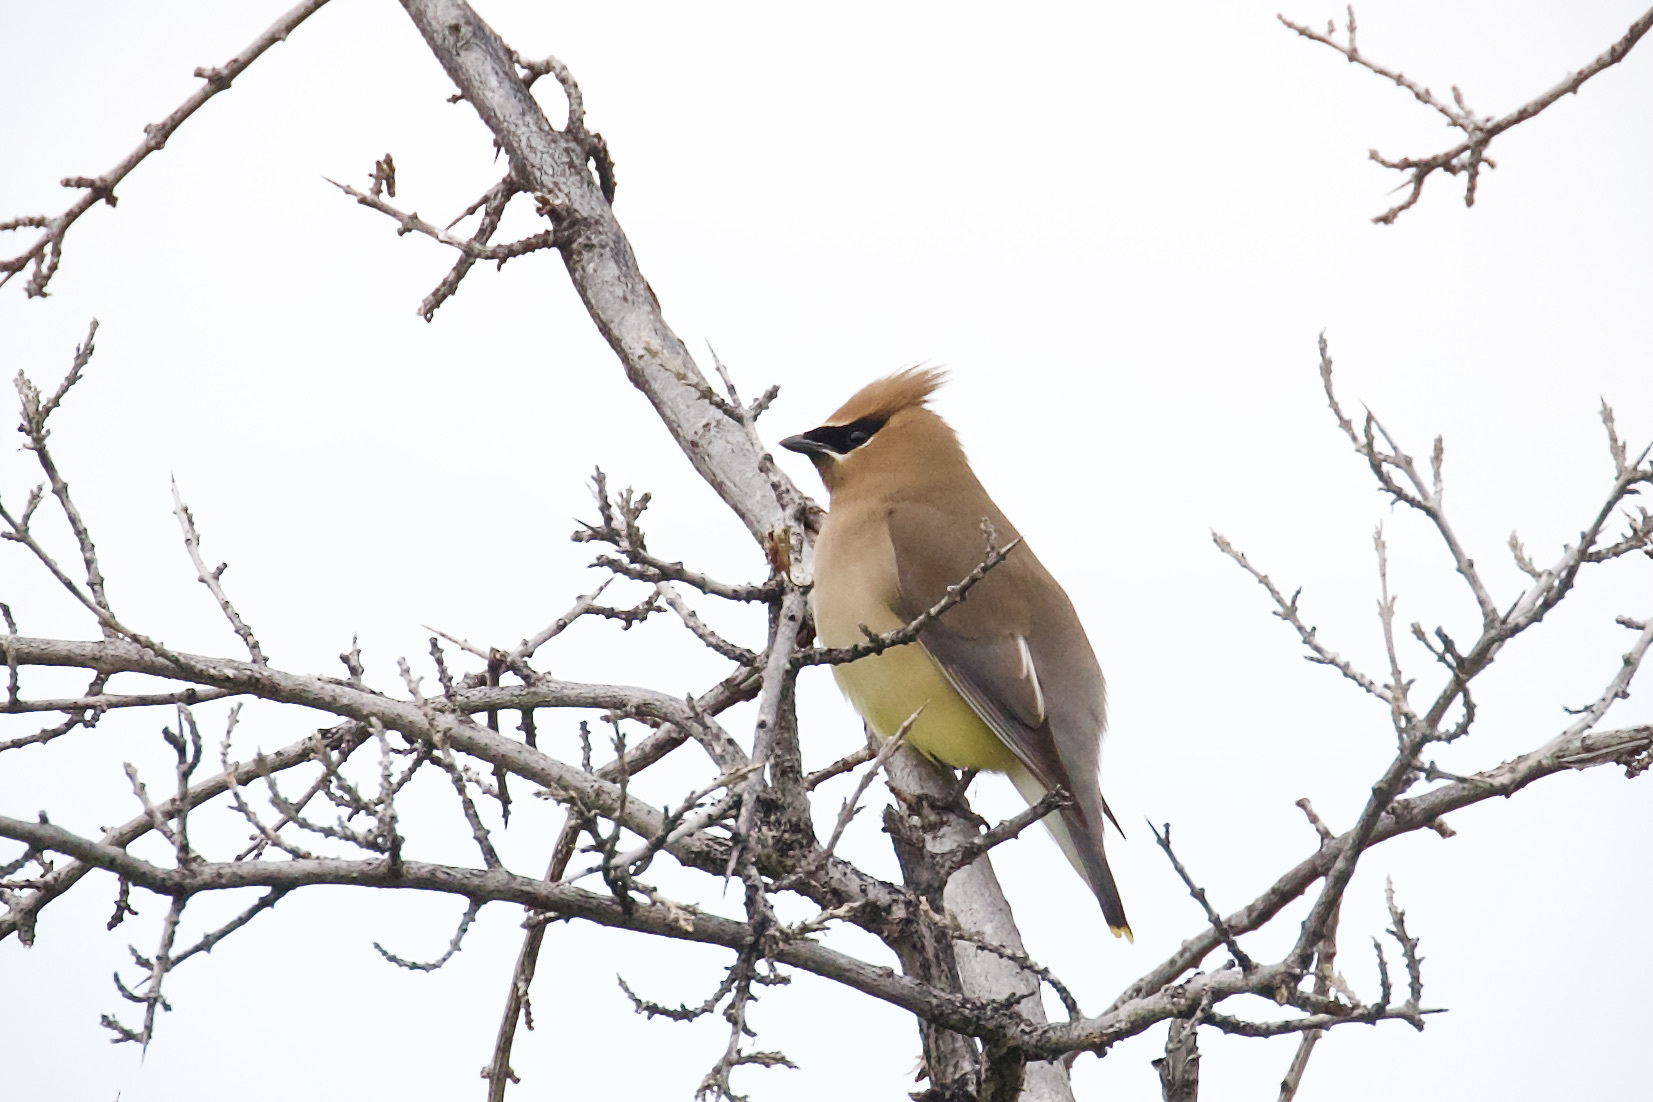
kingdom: Animalia
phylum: Chordata
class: Aves
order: Passeriformes
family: Bombycillidae
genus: Bombycilla
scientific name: Bombycilla cedrorum
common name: Cedar waxwing
